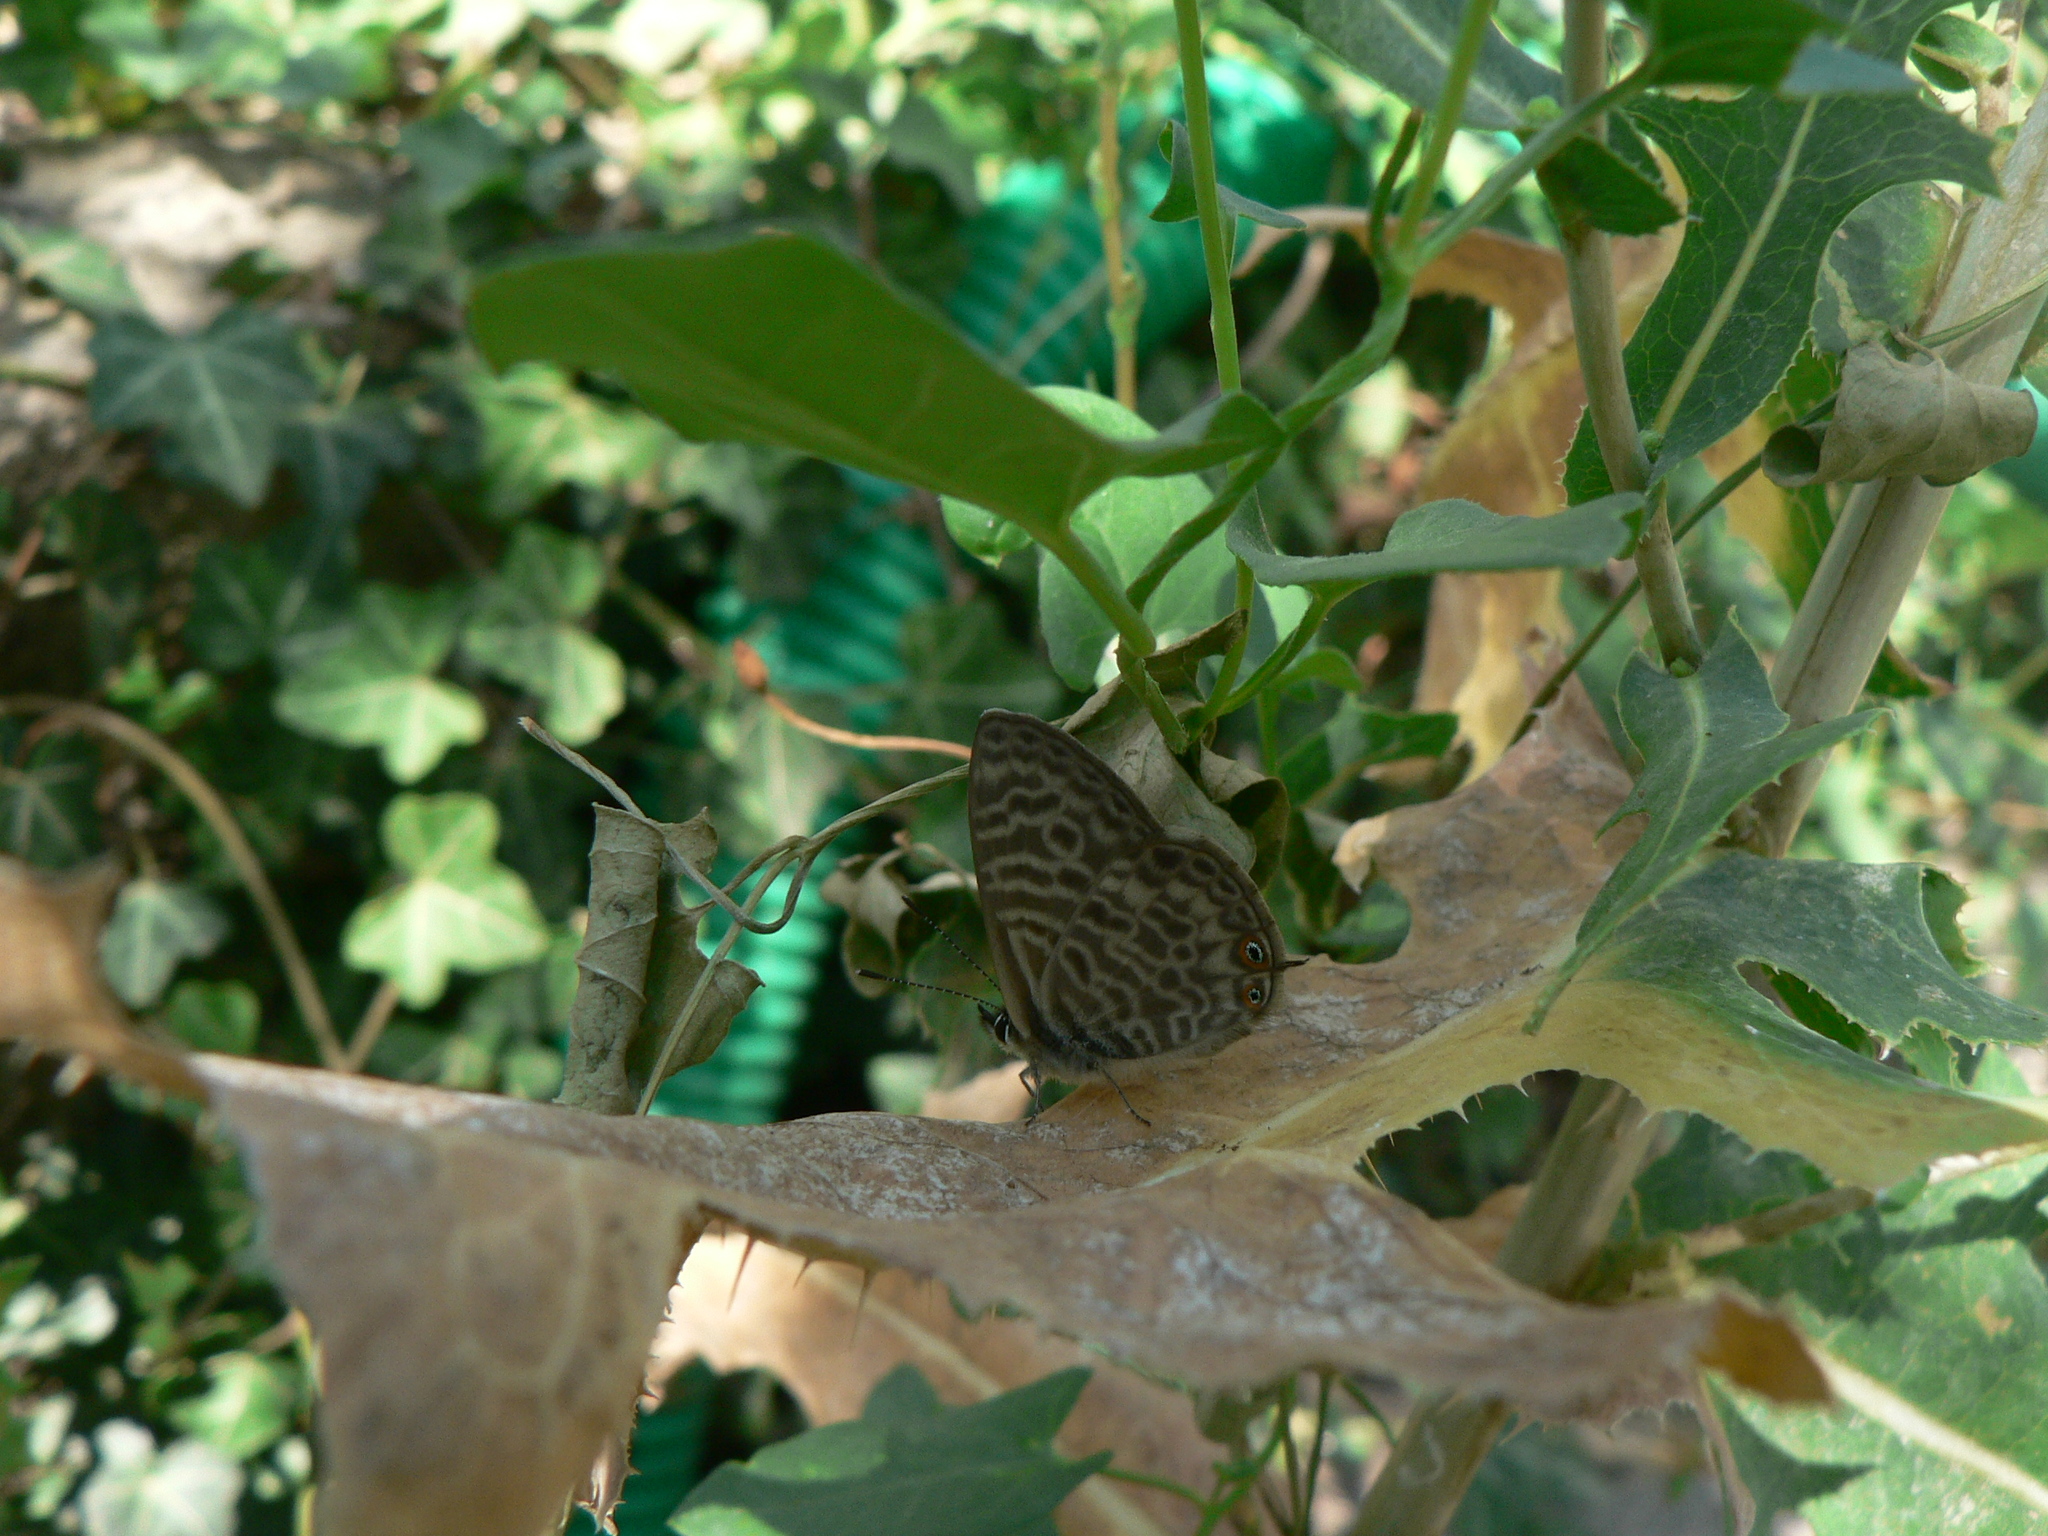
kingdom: Animalia
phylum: Arthropoda
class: Insecta
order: Lepidoptera
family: Lycaenidae
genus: Leptotes
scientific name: Leptotes pirithous
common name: Lang's short-tailed blue
